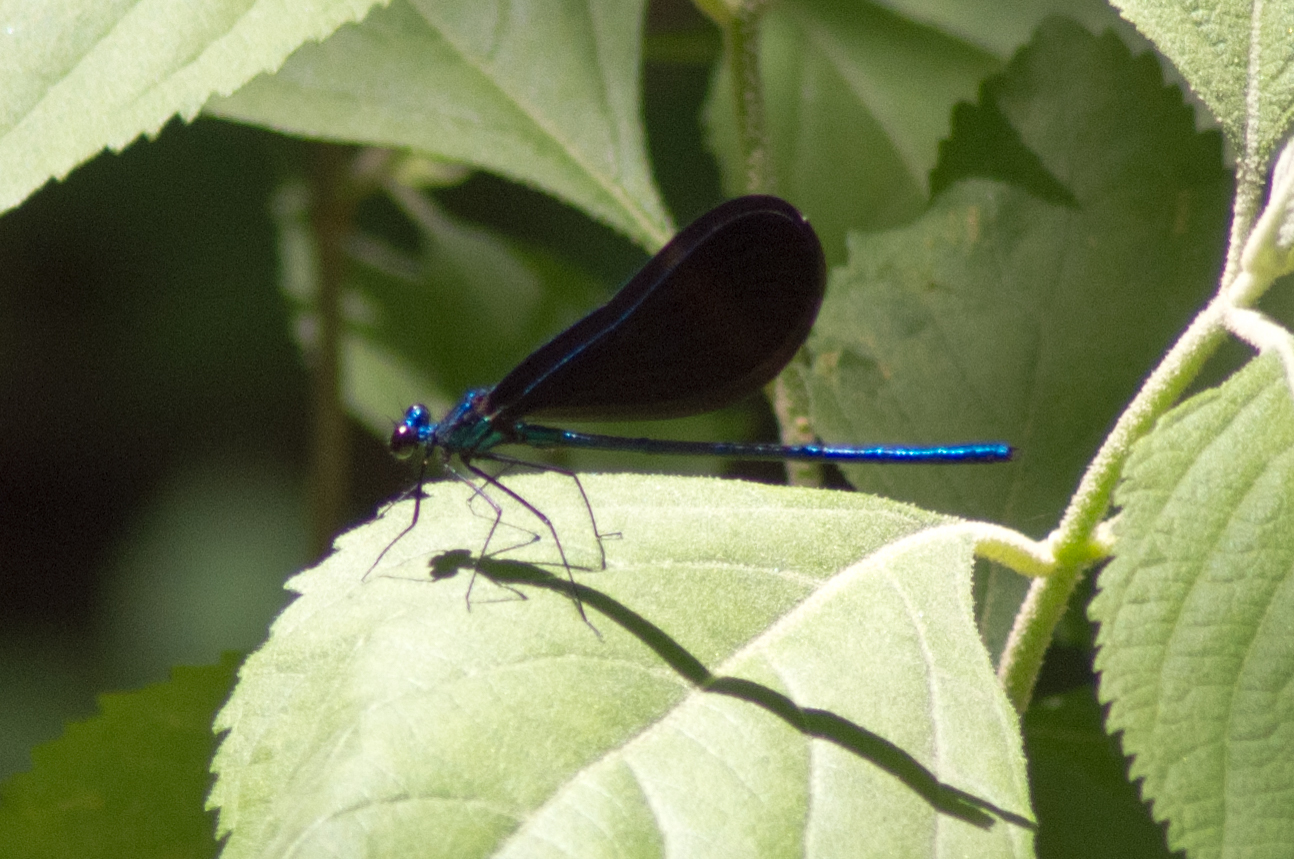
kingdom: Animalia
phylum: Arthropoda
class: Insecta
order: Odonata
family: Calopterygidae
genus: Calopteryx
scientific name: Calopteryx maculata
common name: Ebony jewelwing
